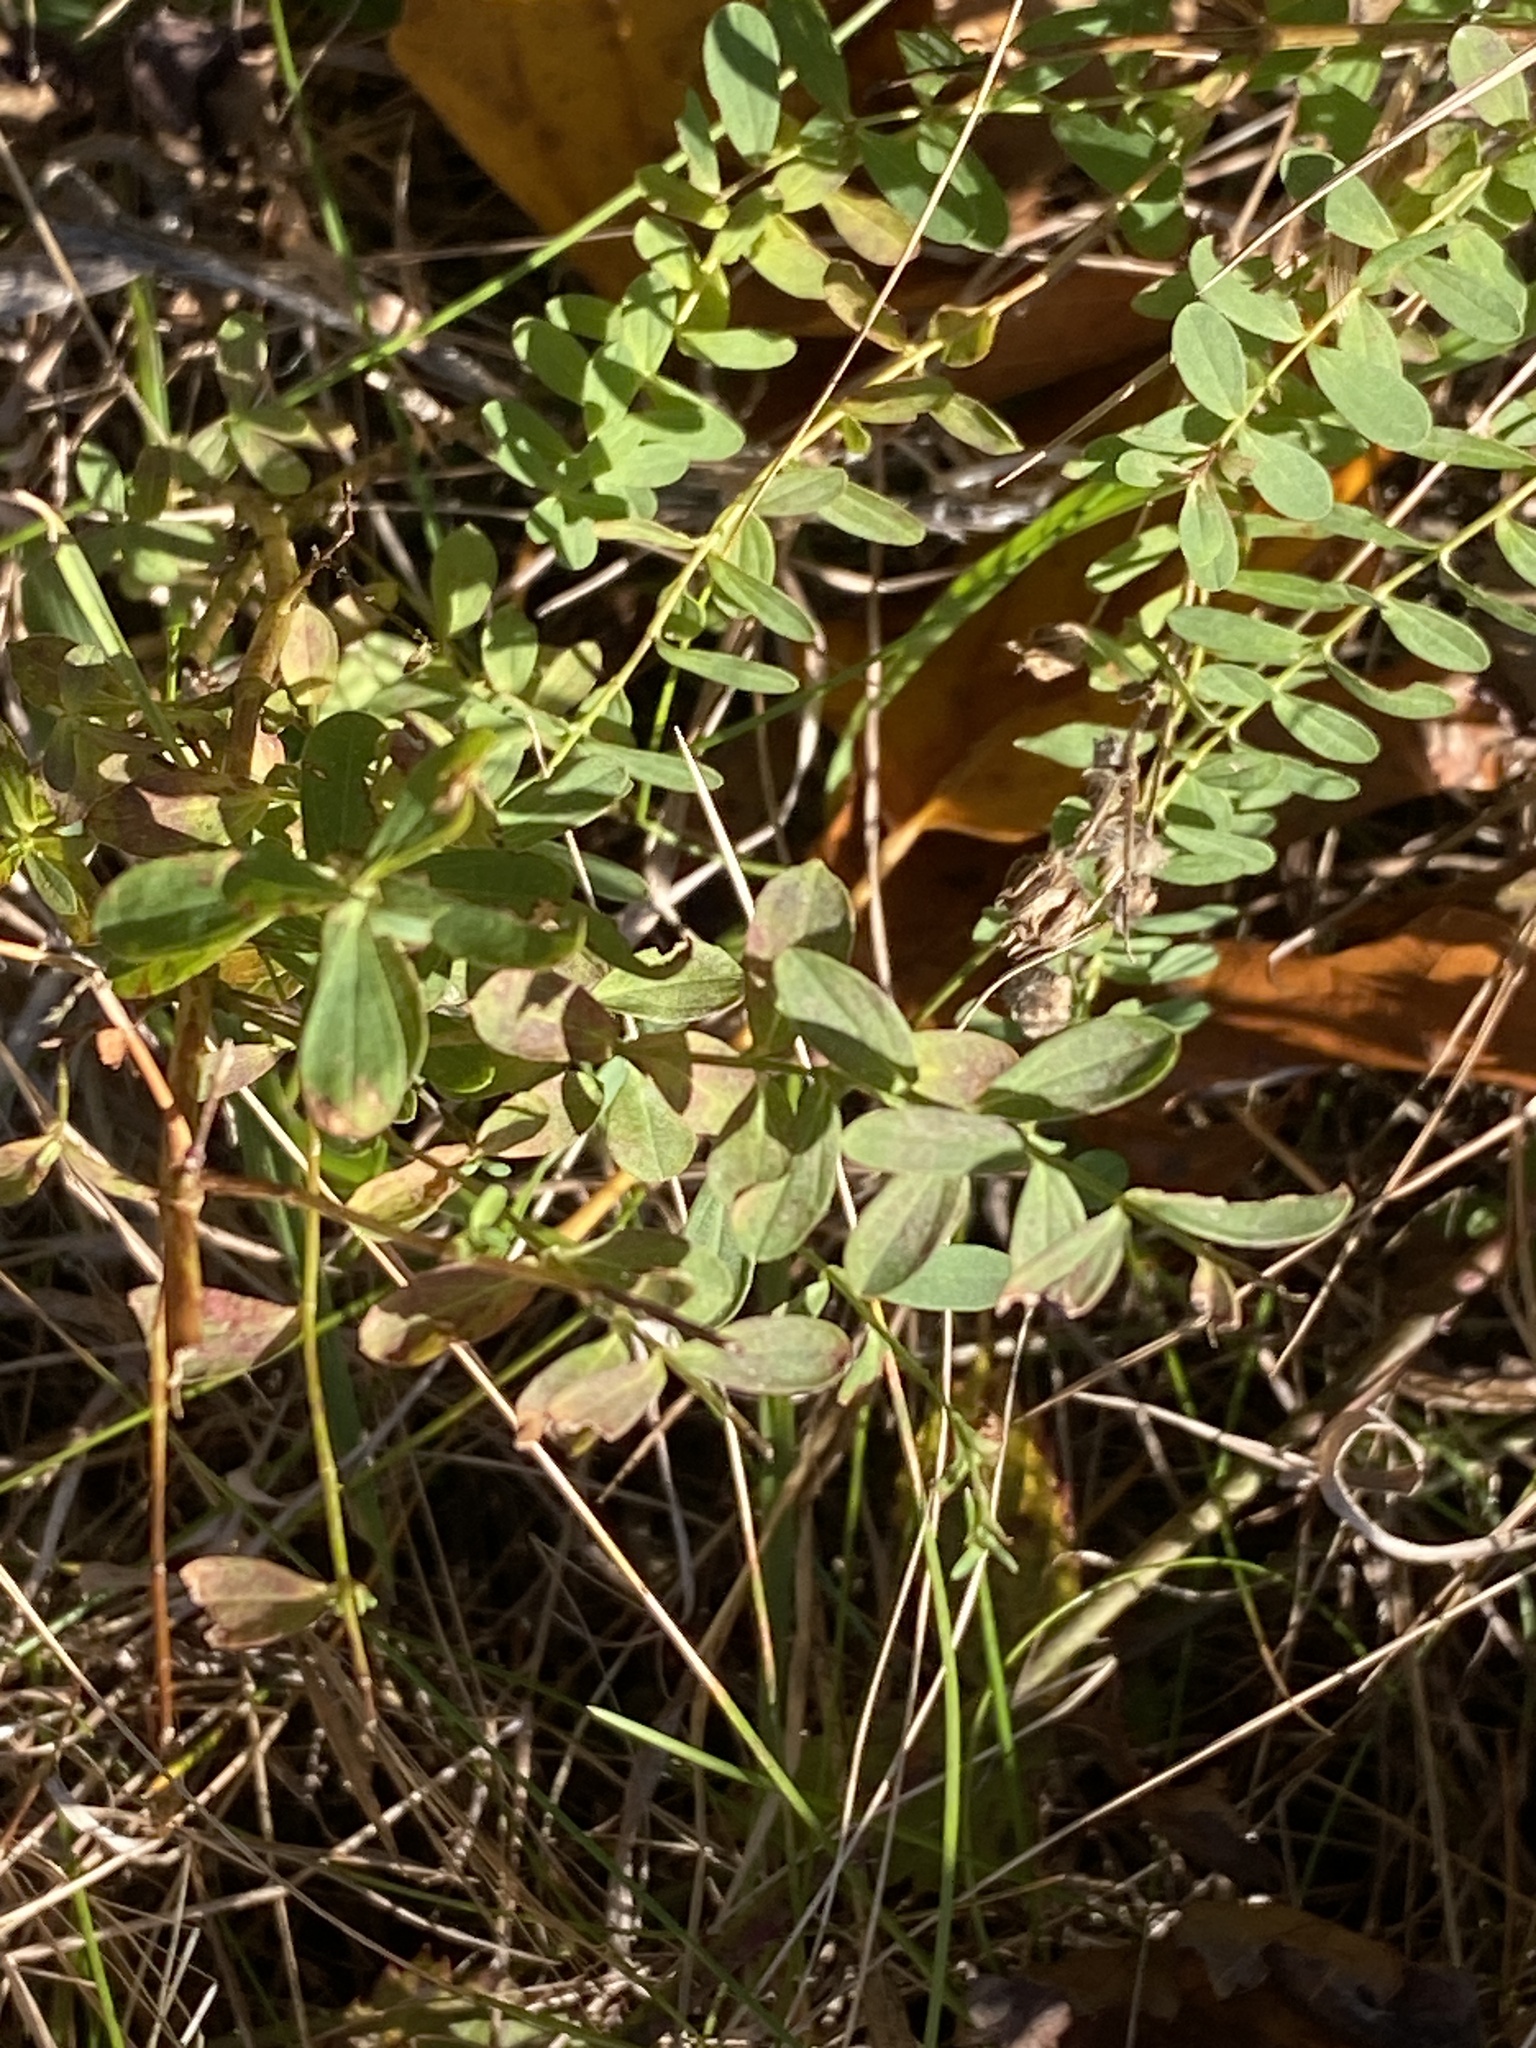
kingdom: Plantae
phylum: Tracheophyta
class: Magnoliopsida
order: Malpighiales
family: Hypericaceae
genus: Hypericum
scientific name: Hypericum perforatum
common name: Common st. johnswort
